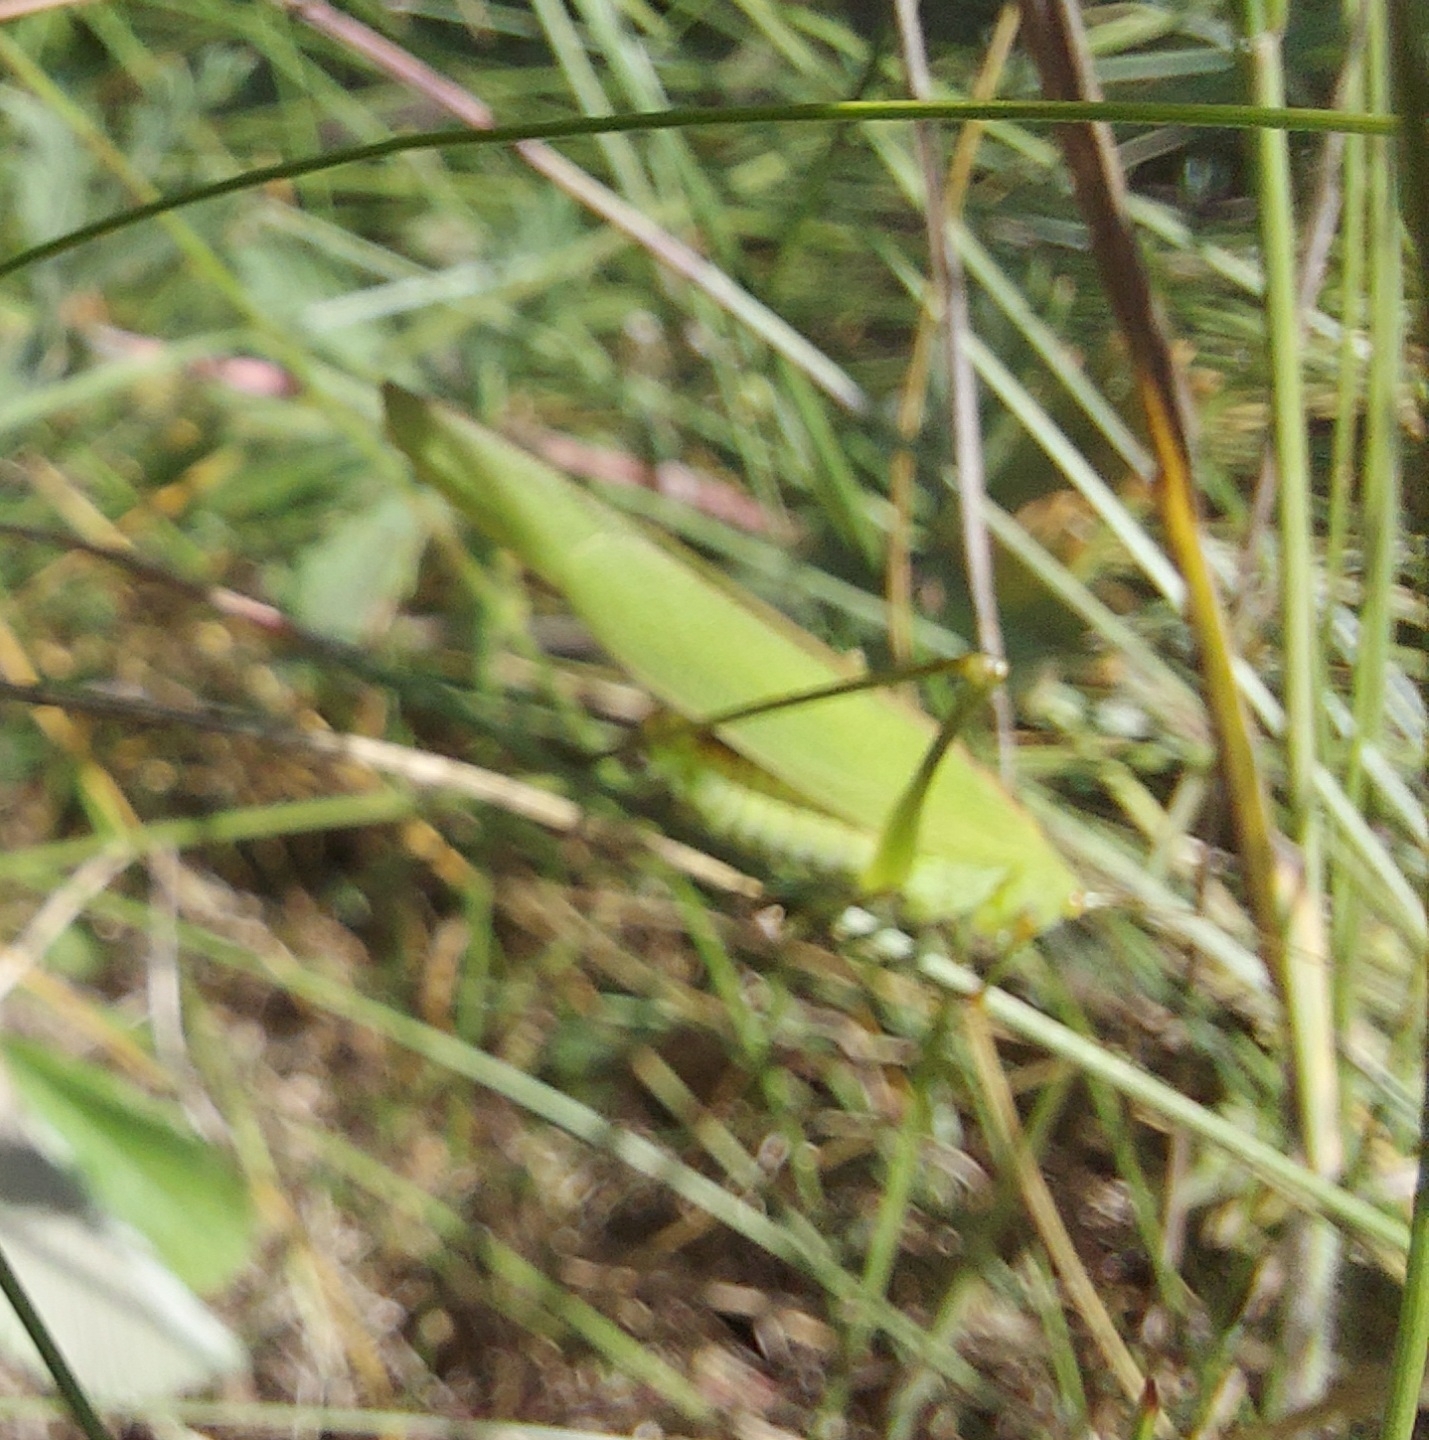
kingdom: Animalia
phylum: Arthropoda
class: Insecta
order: Orthoptera
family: Tettigoniidae
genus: Phaneroptera
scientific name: Phaneroptera falcata
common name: Sickle-bearing bush-cricket
